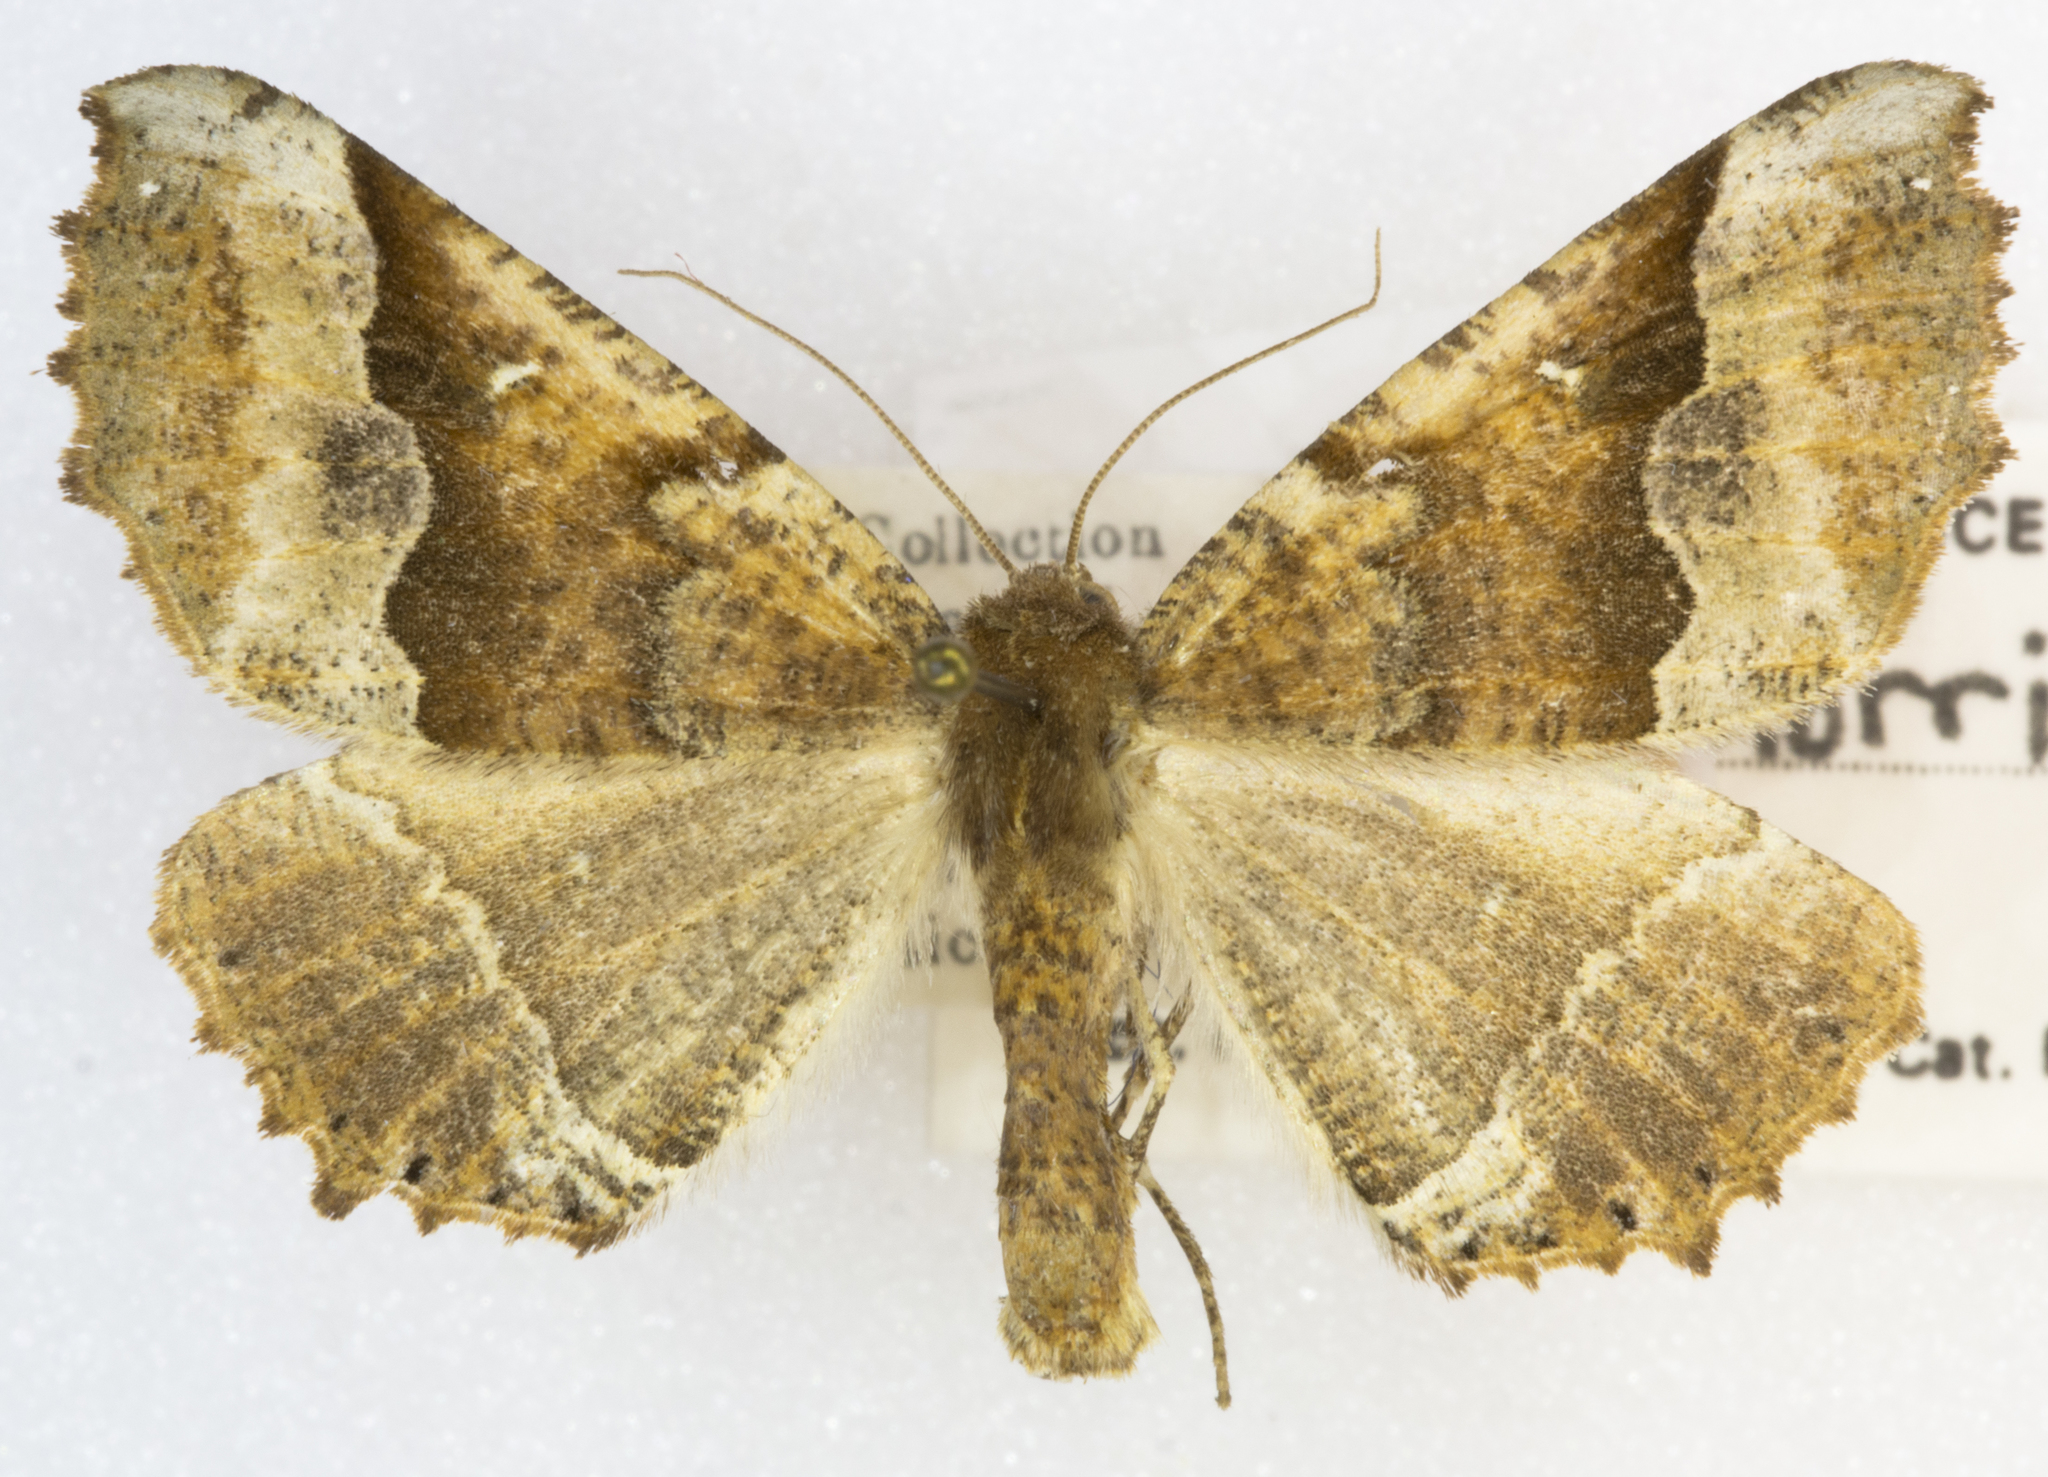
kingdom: Animalia
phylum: Arthropoda
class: Insecta
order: Lepidoptera
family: Geometridae
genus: Pero
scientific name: Pero morrisonaria
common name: Morrison's pero
